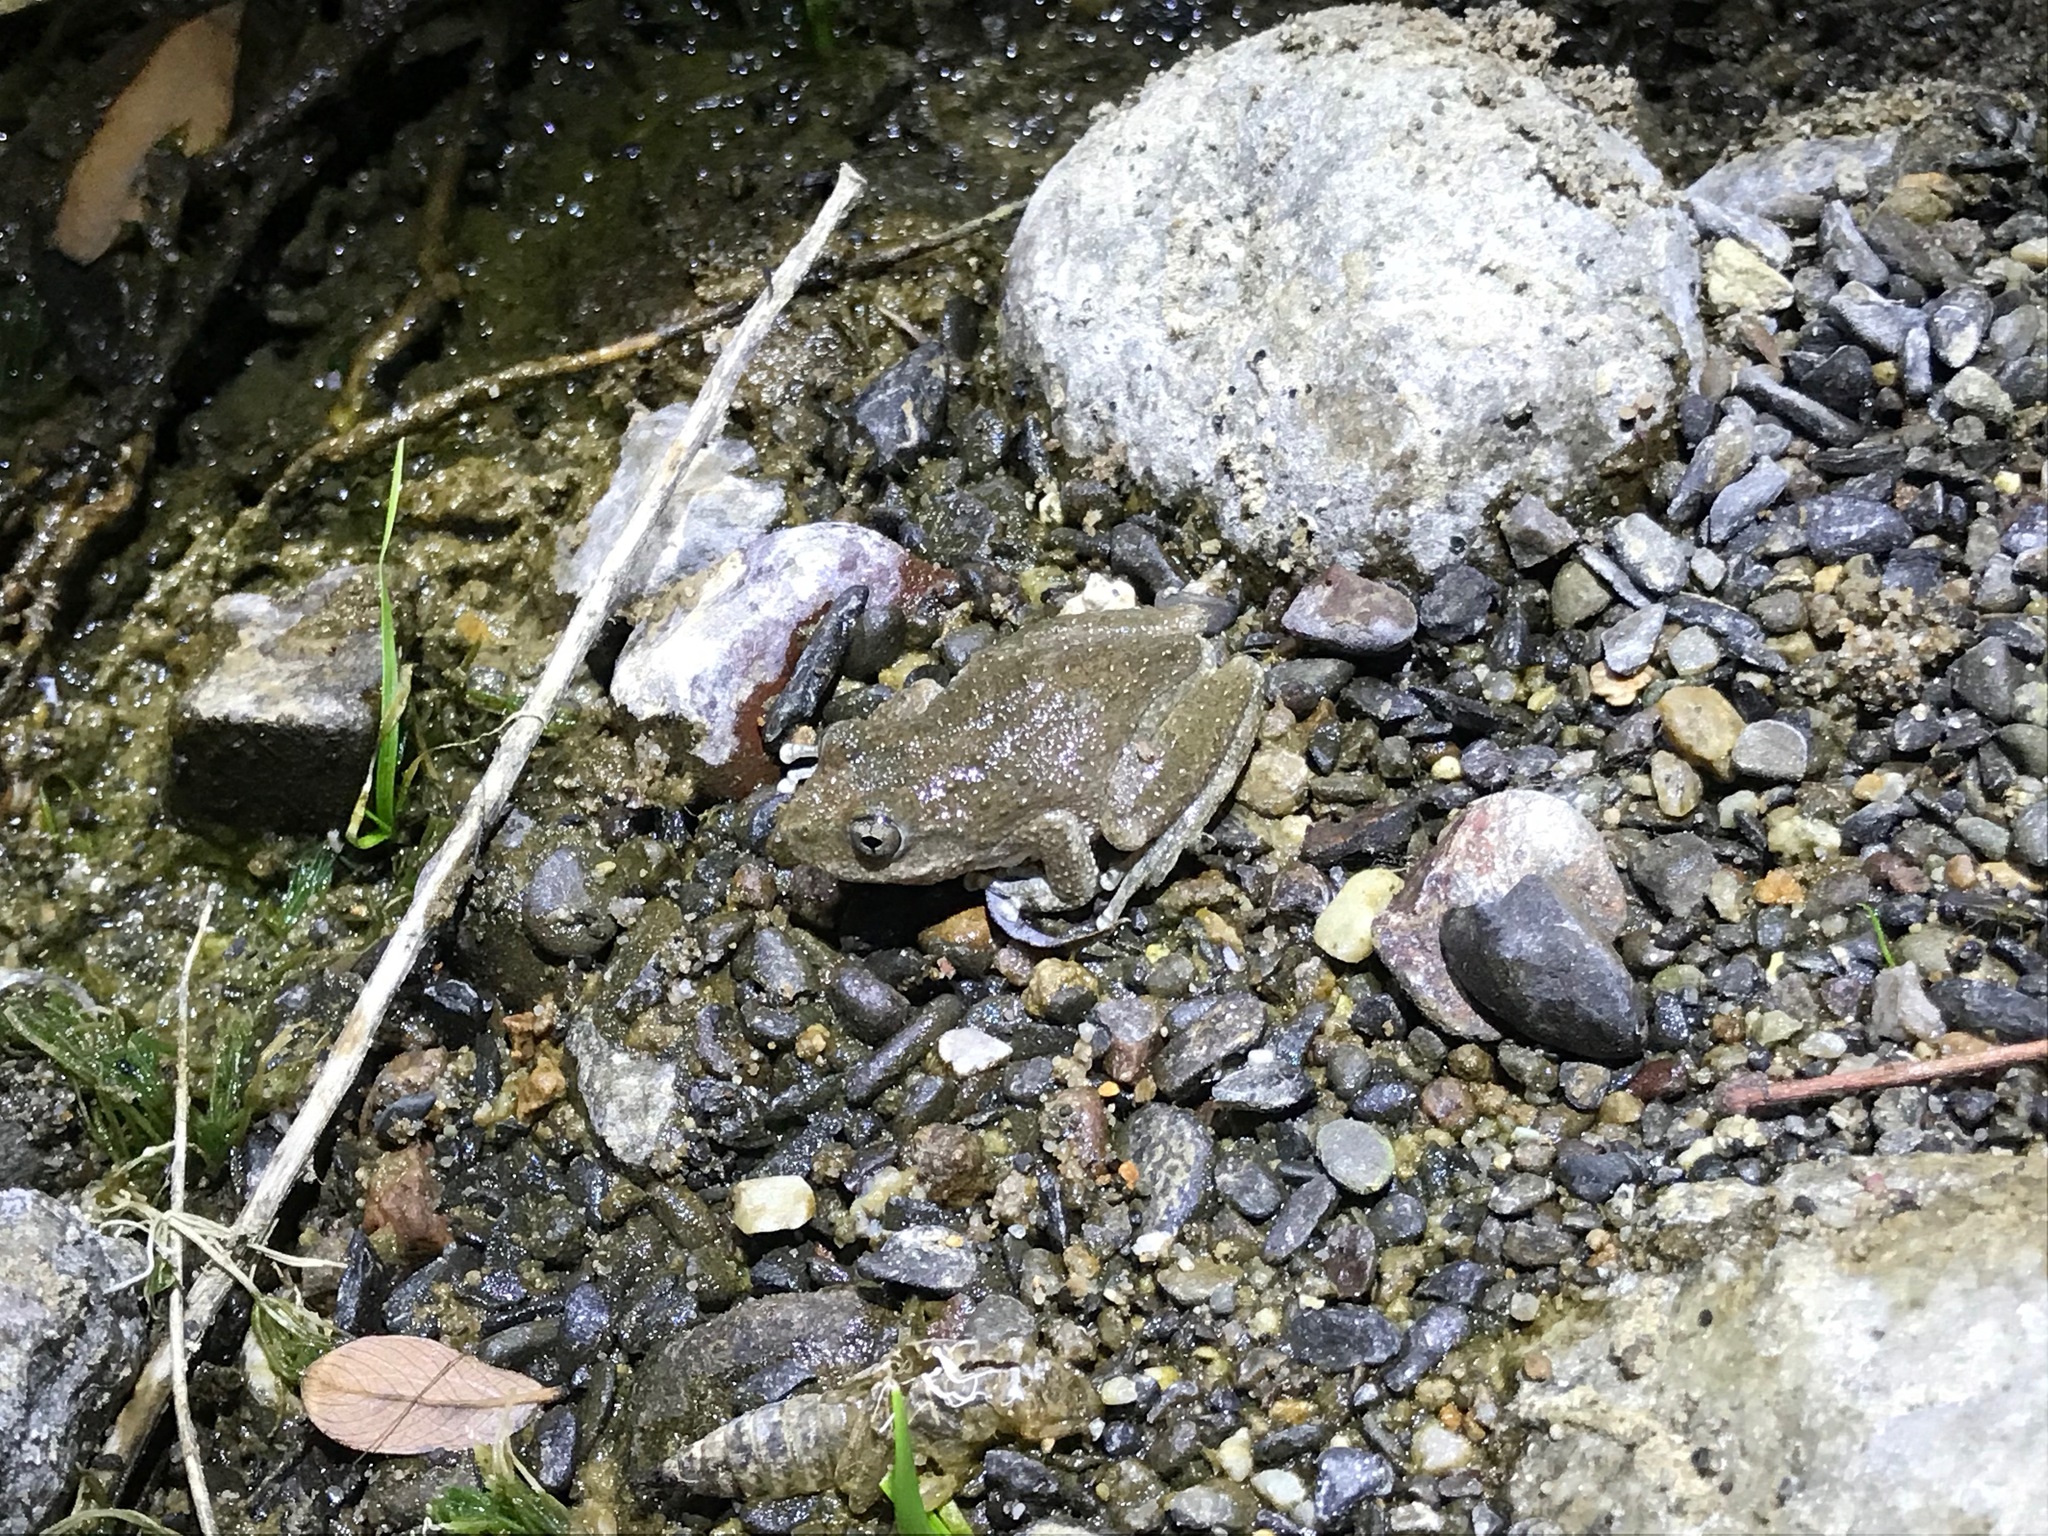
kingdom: Animalia
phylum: Chordata
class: Amphibia
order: Anura
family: Hylidae
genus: Pseudacris
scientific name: Pseudacris cadaverina
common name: California chorus frog
